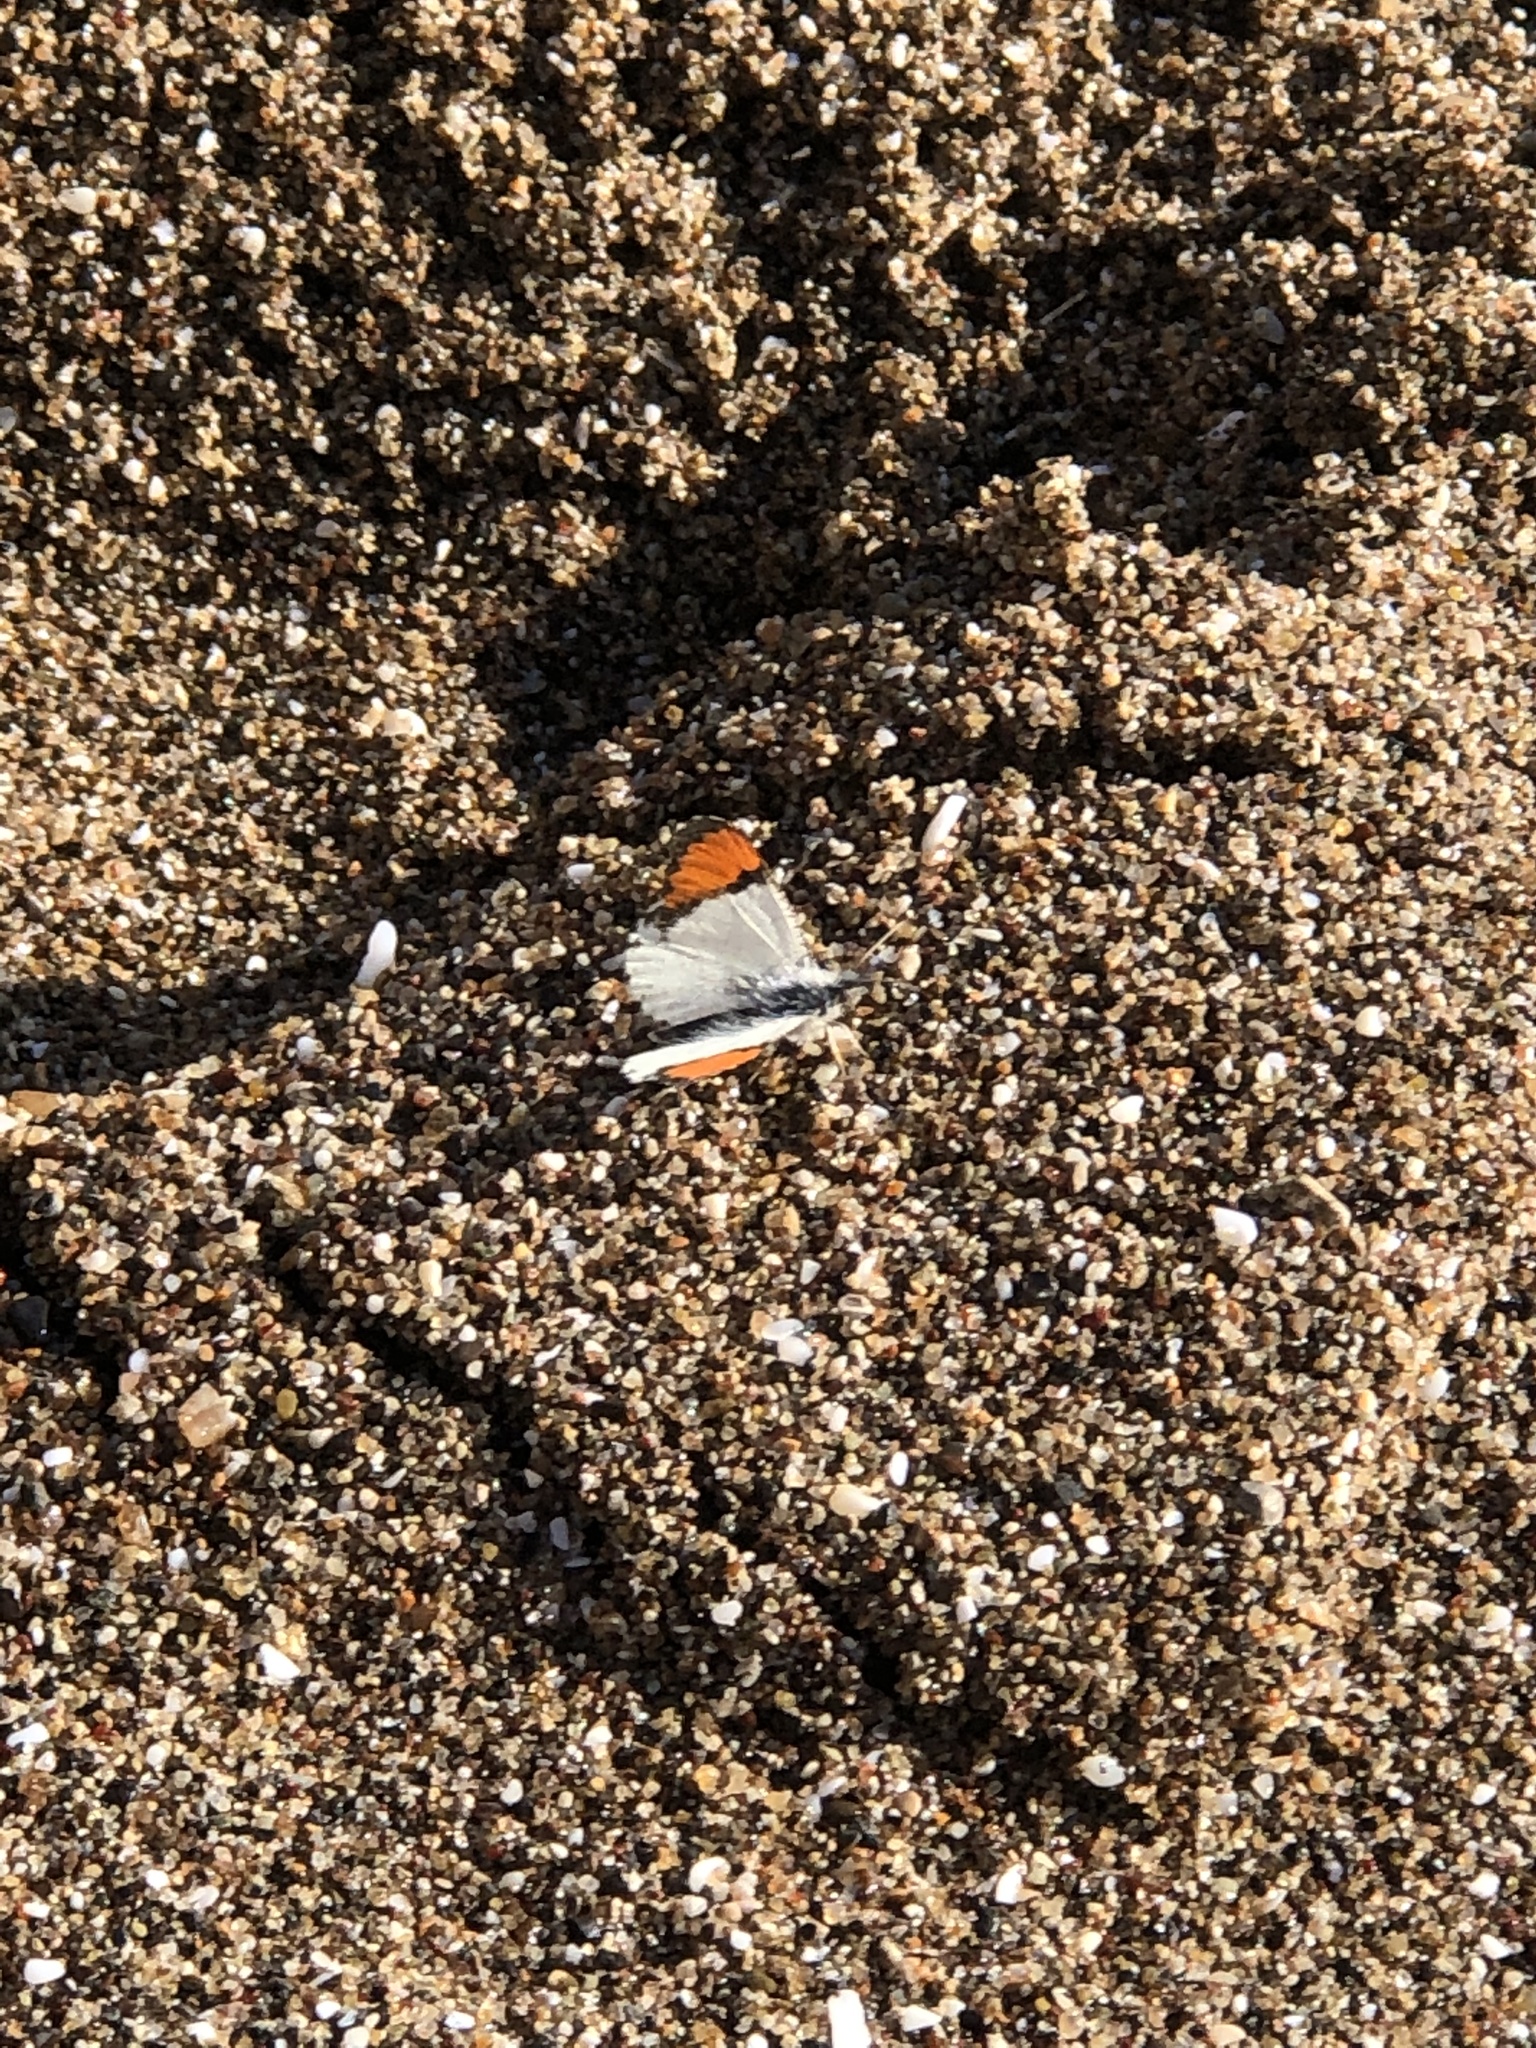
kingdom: Animalia
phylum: Arthropoda
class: Insecta
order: Lepidoptera
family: Pieridae
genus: Anthocharis
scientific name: Anthocharis sara
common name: Sara's orangetip
